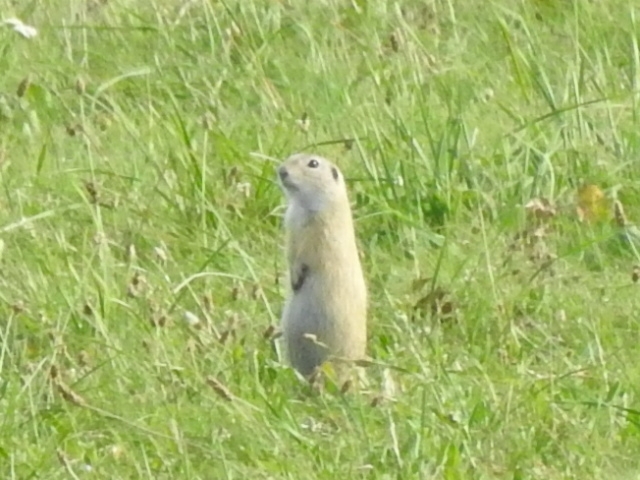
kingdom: Animalia
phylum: Chordata
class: Mammalia
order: Rodentia
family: Sciuridae
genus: Spermophilus
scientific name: Spermophilus citellus
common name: European ground squirrel
